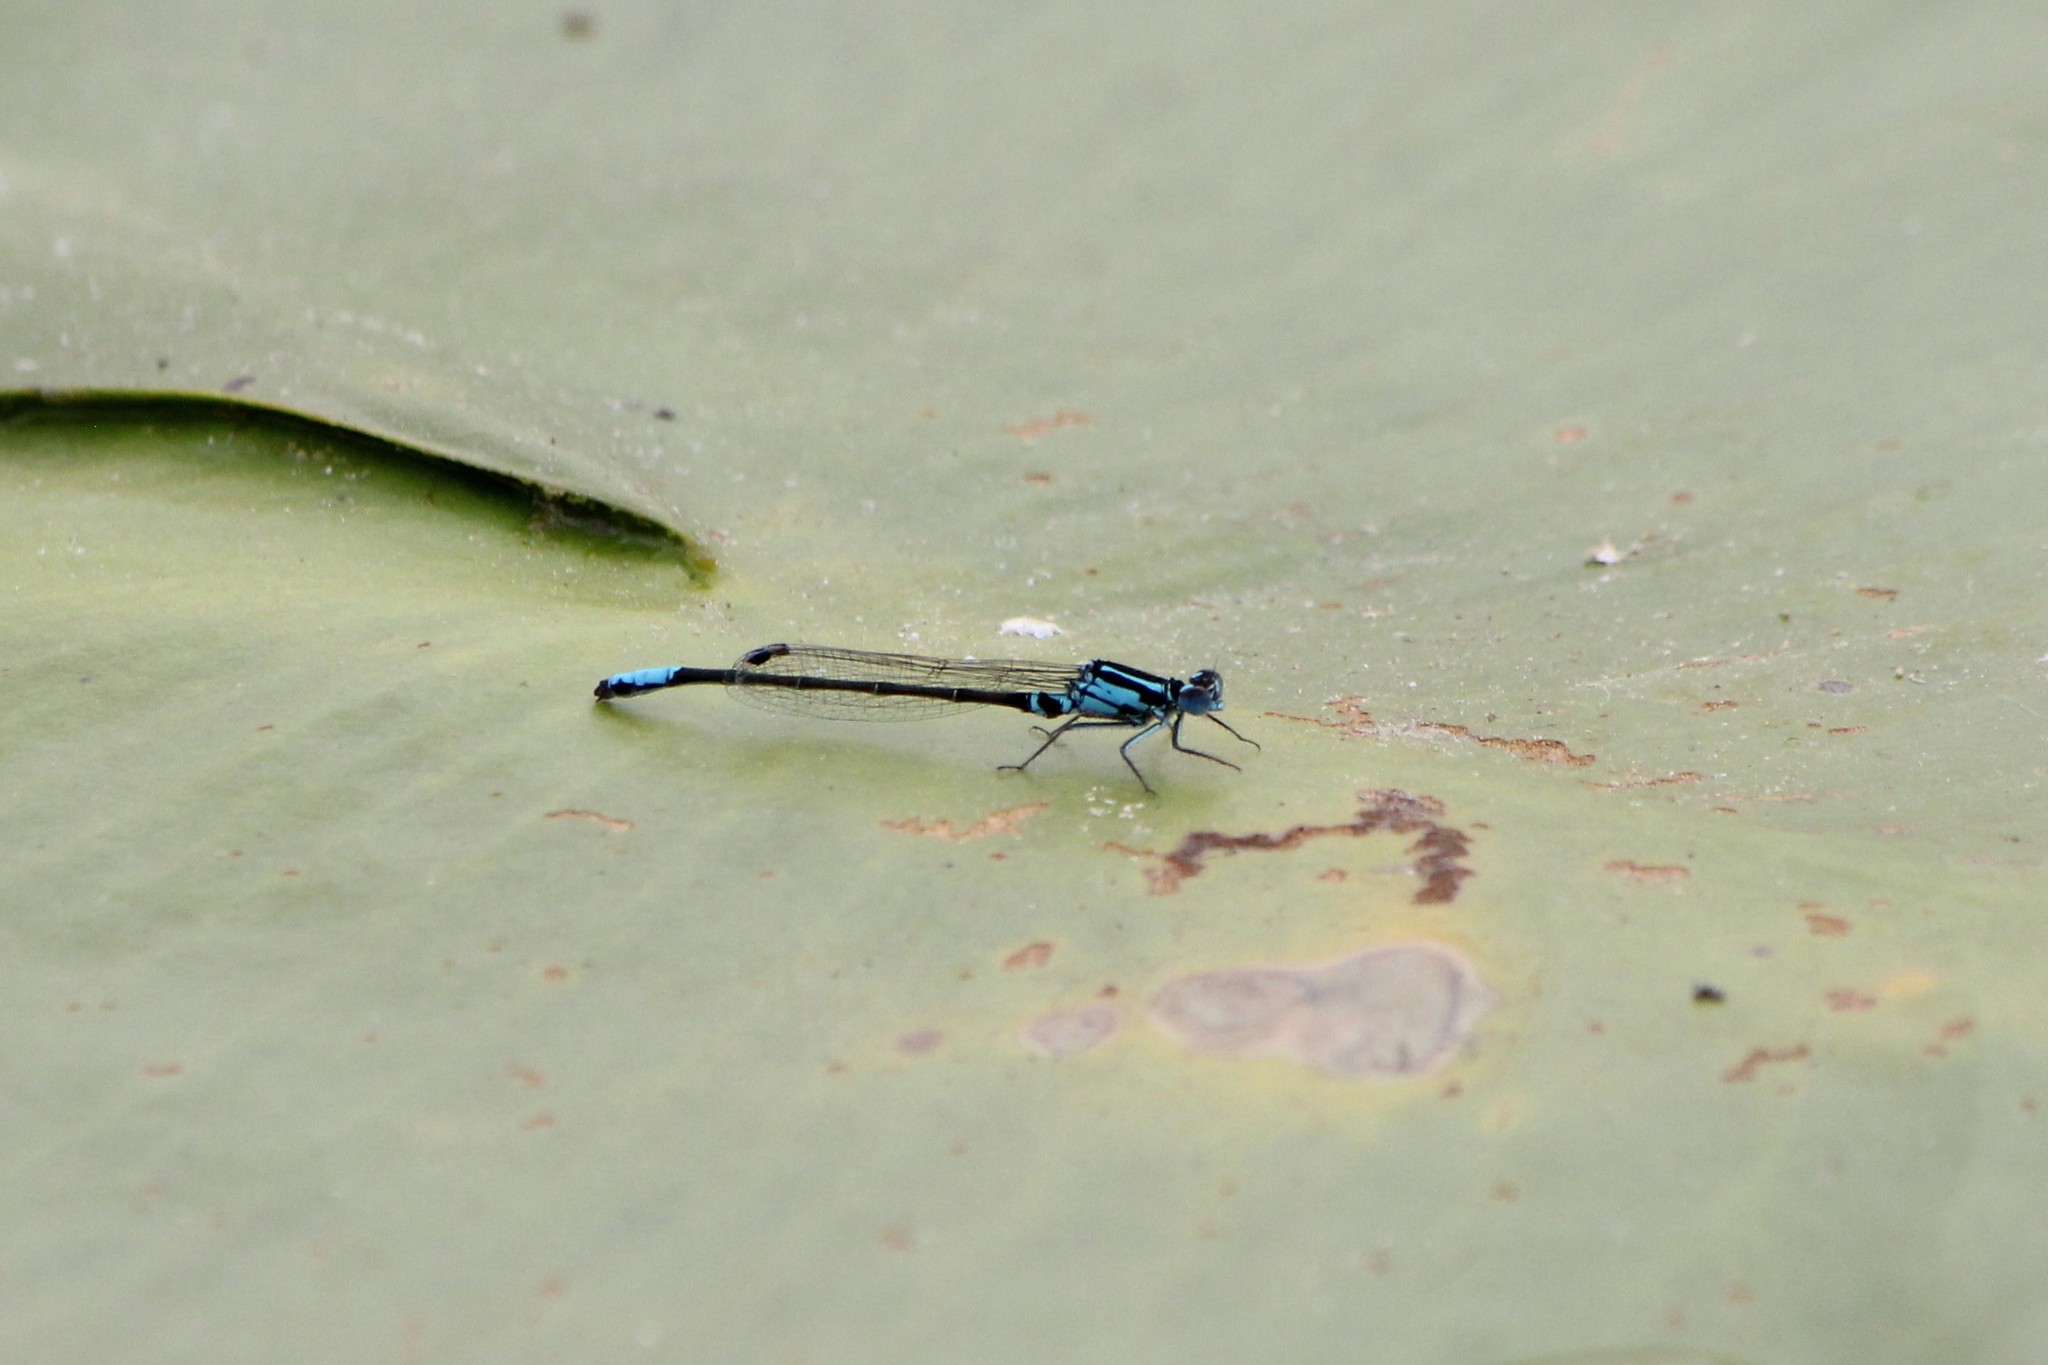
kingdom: Animalia
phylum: Arthropoda
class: Insecta
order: Odonata
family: Coenagrionidae
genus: Ischnura
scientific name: Ischnura kellicotti
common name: Lilypad forktail
